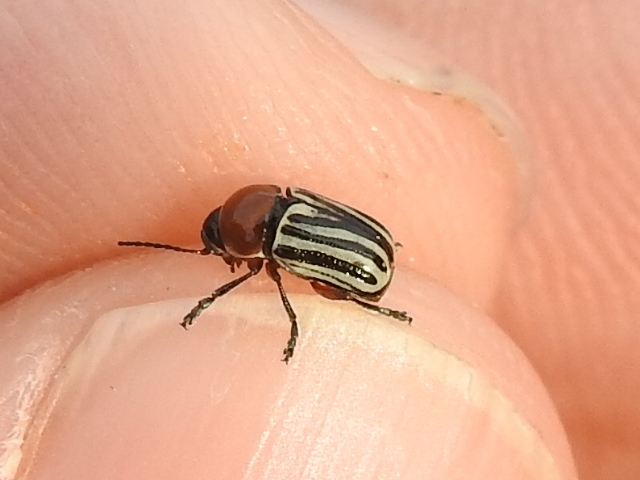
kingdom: Animalia
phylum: Arthropoda
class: Insecta
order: Coleoptera
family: Chrysomelidae
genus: Cryptocephalus
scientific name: Cryptocephalus confluentus
